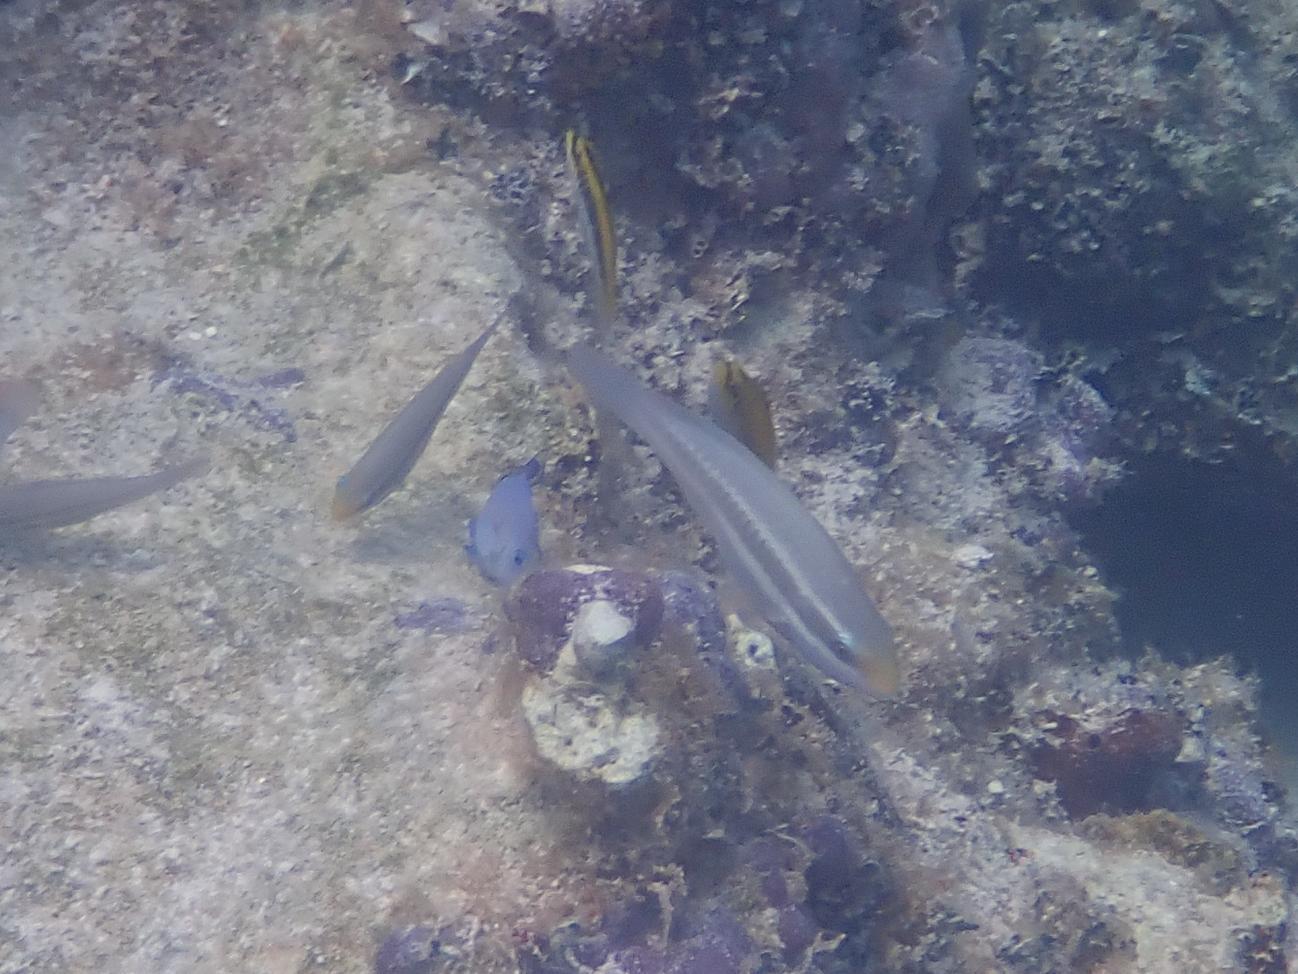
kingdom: Animalia
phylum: Chordata
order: Perciformes
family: Scaridae
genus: Scarus
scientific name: Scarus iseri
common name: Striped parrotfish
